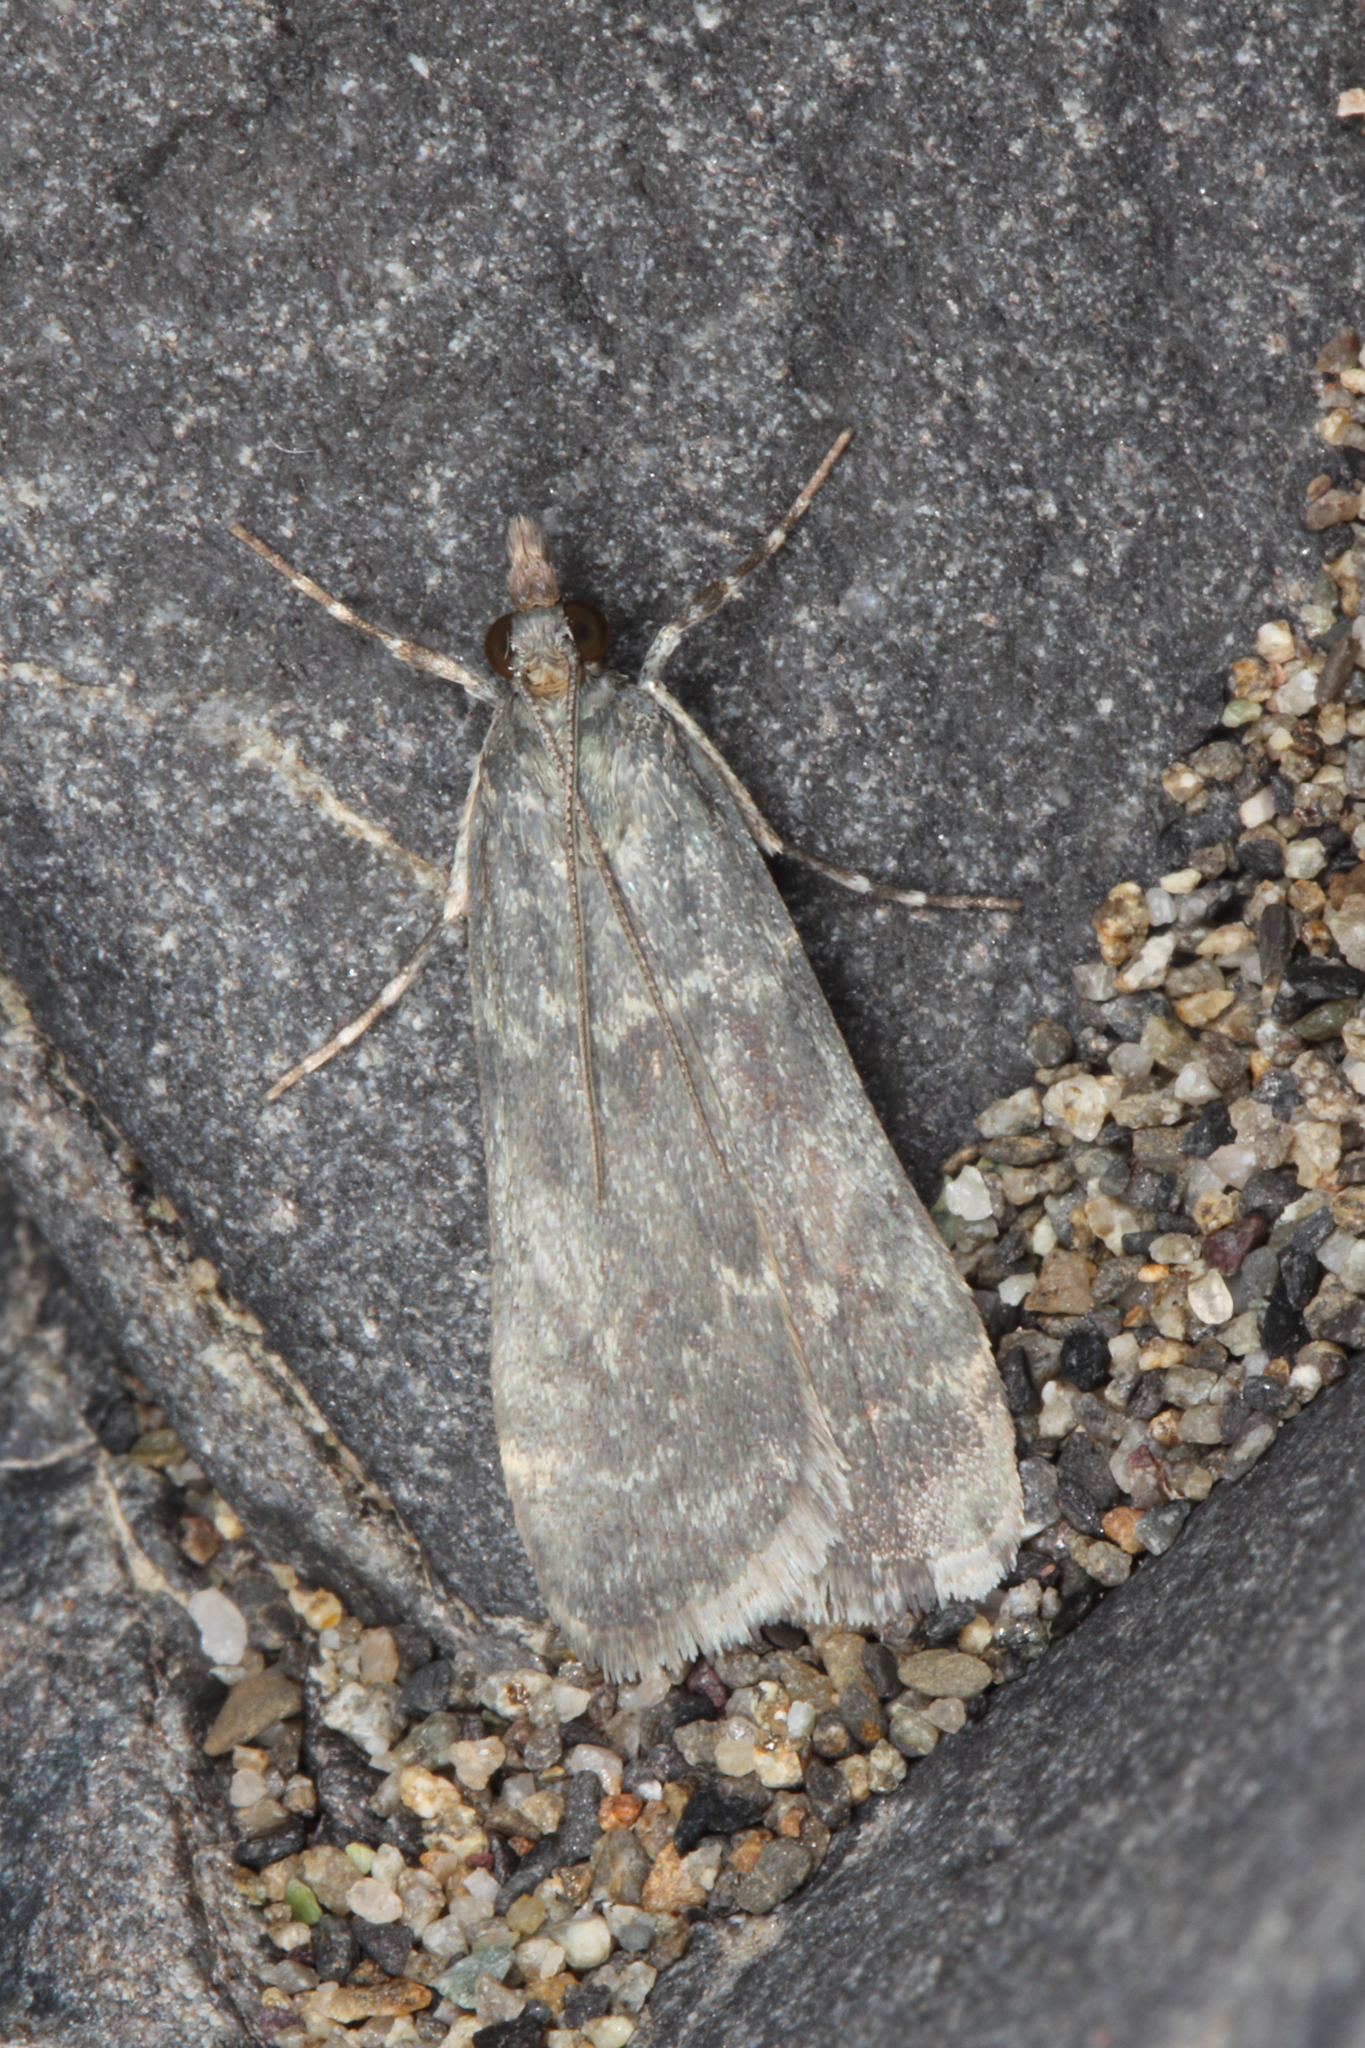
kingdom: Animalia
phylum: Arthropoda
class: Insecta
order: Lepidoptera
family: Crambidae
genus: Eudonia
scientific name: Eudonia cataxesta
